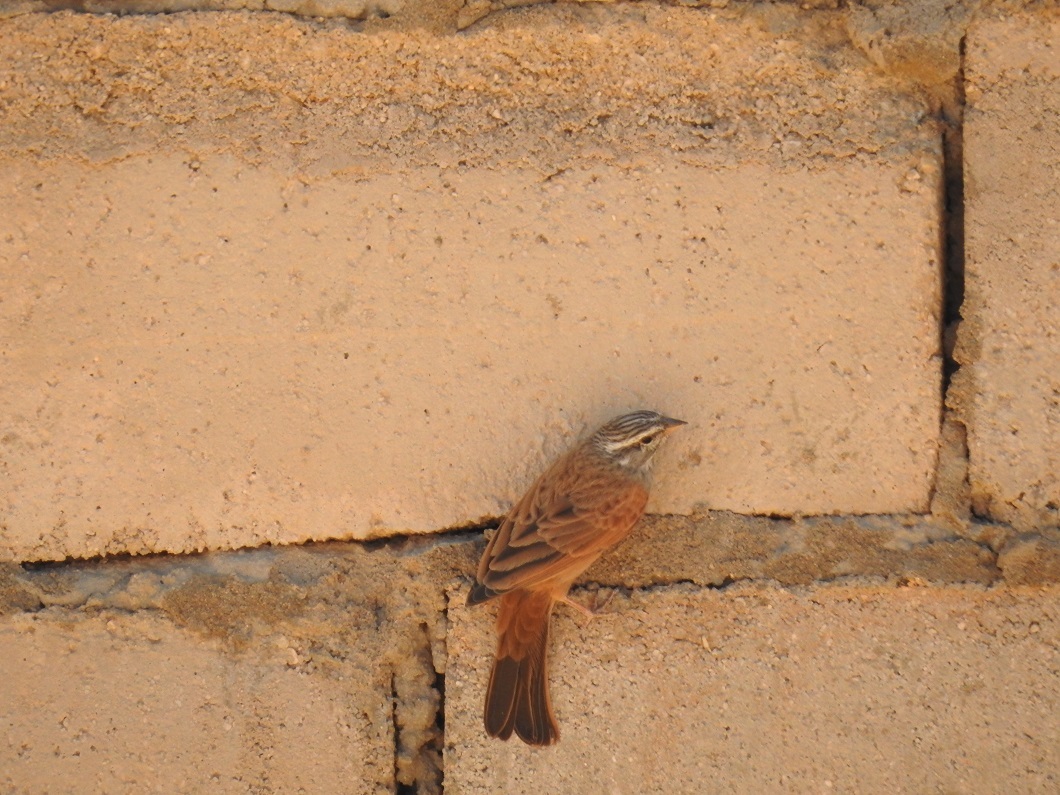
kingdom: Animalia
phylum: Chordata
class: Aves
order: Passeriformes
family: Emberizidae
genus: Emberiza
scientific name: Emberiza sahari
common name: House bunting
